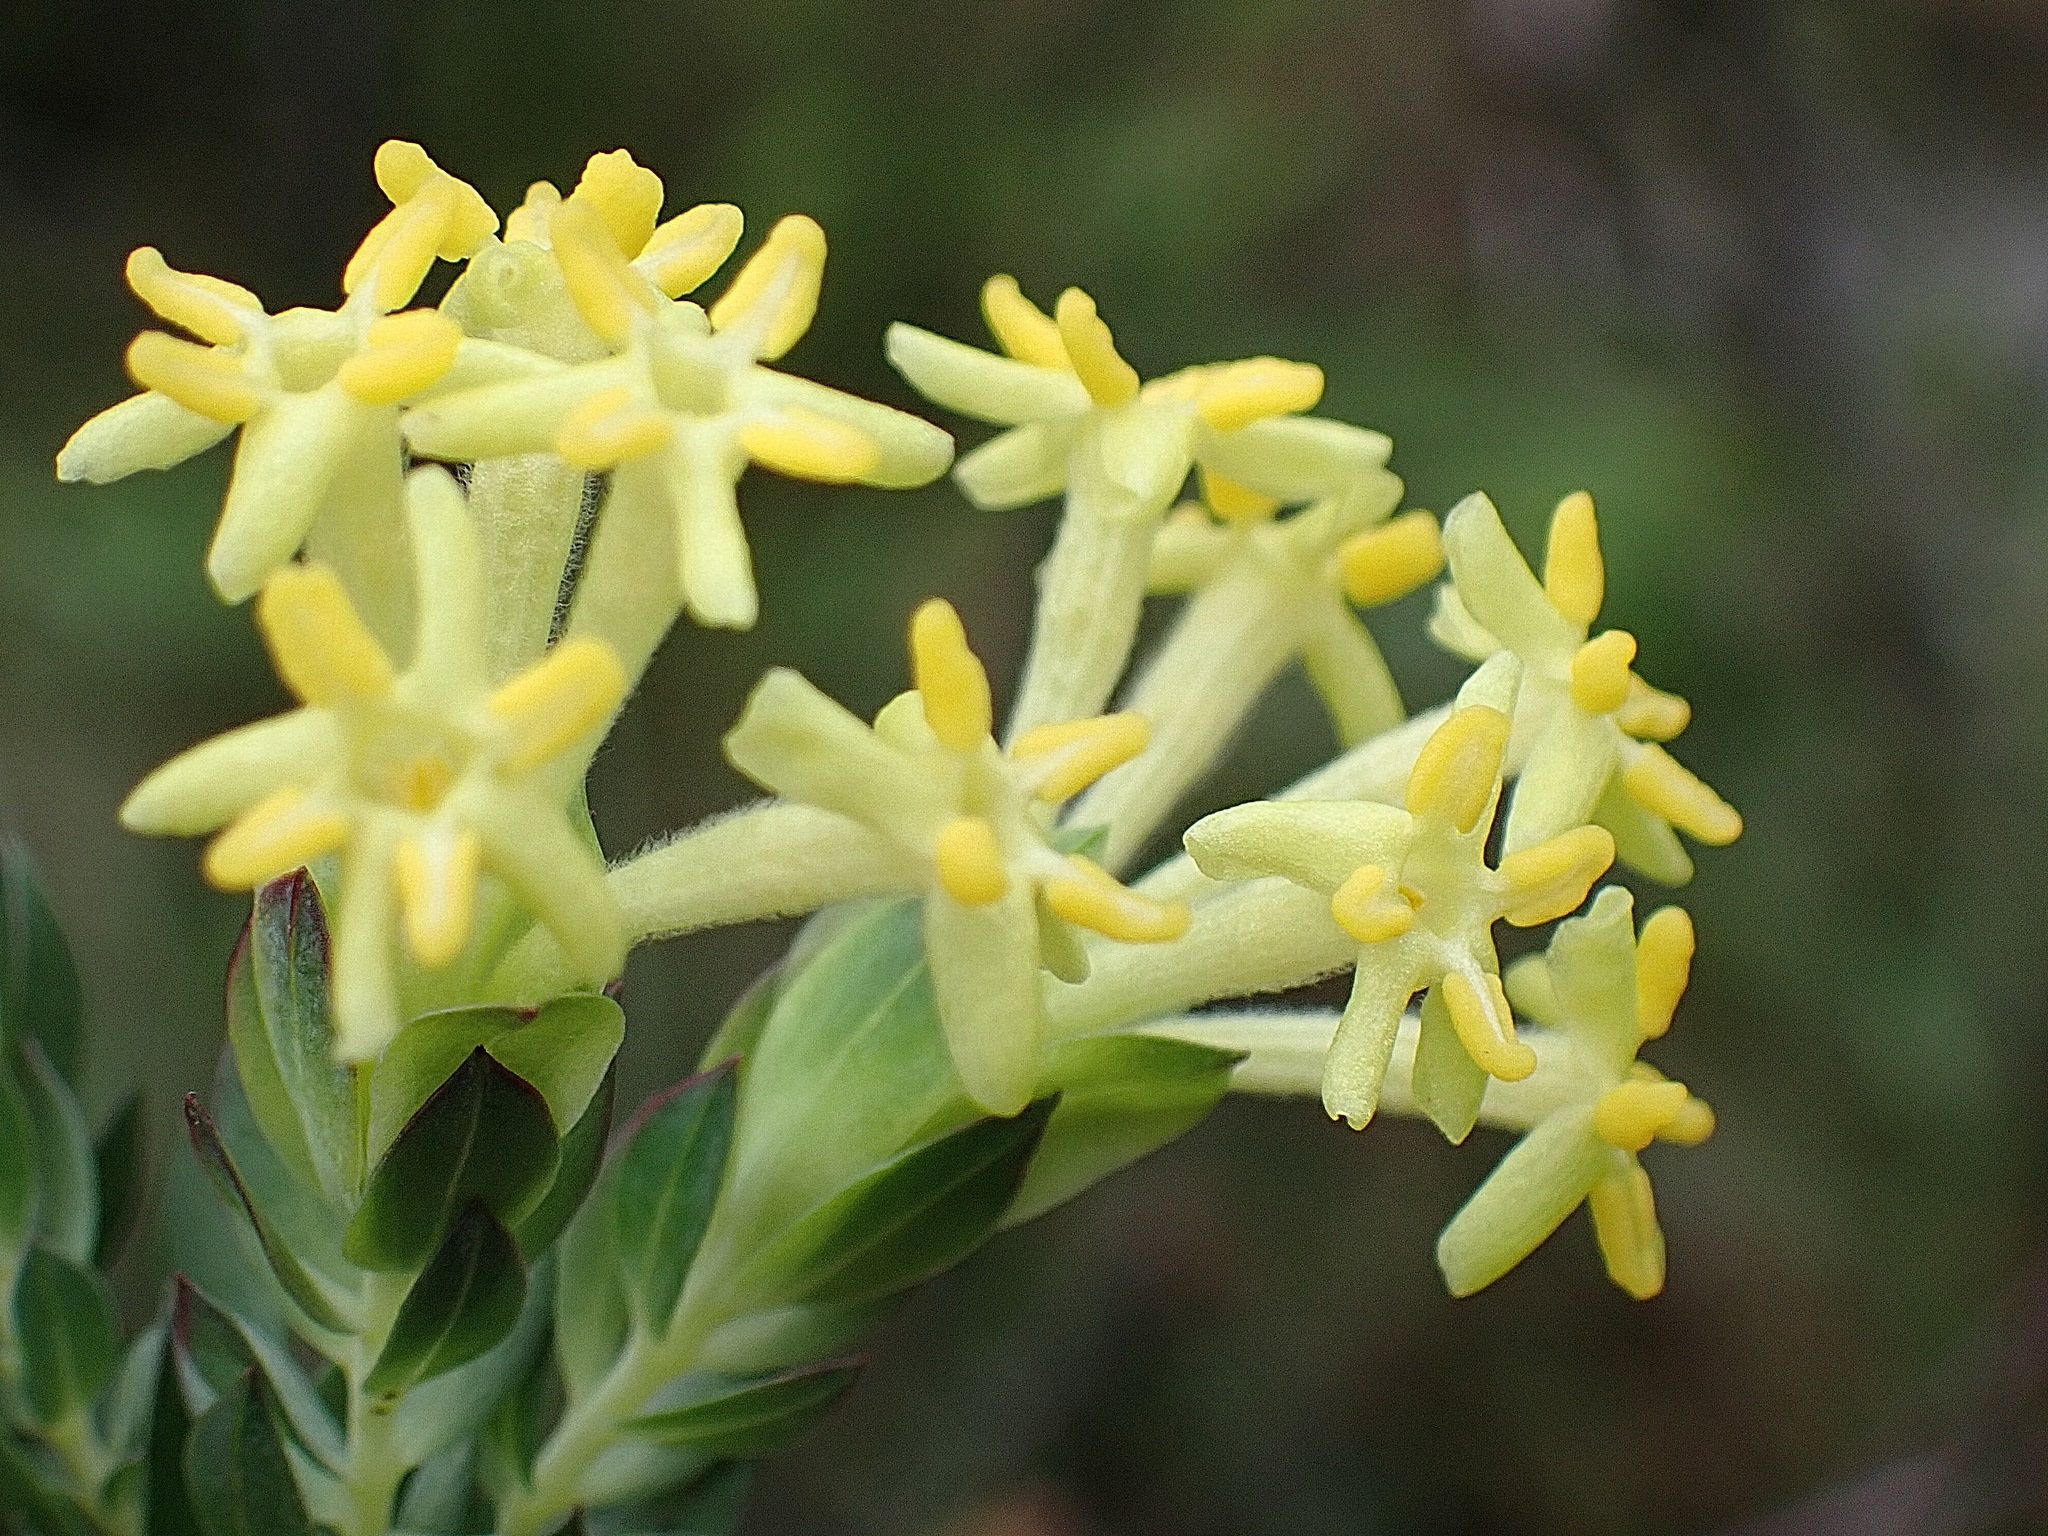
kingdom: Plantae
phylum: Tracheophyta
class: Magnoliopsida
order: Malvales
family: Thymelaeaceae
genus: Gnidia
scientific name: Gnidia oppositifolia
